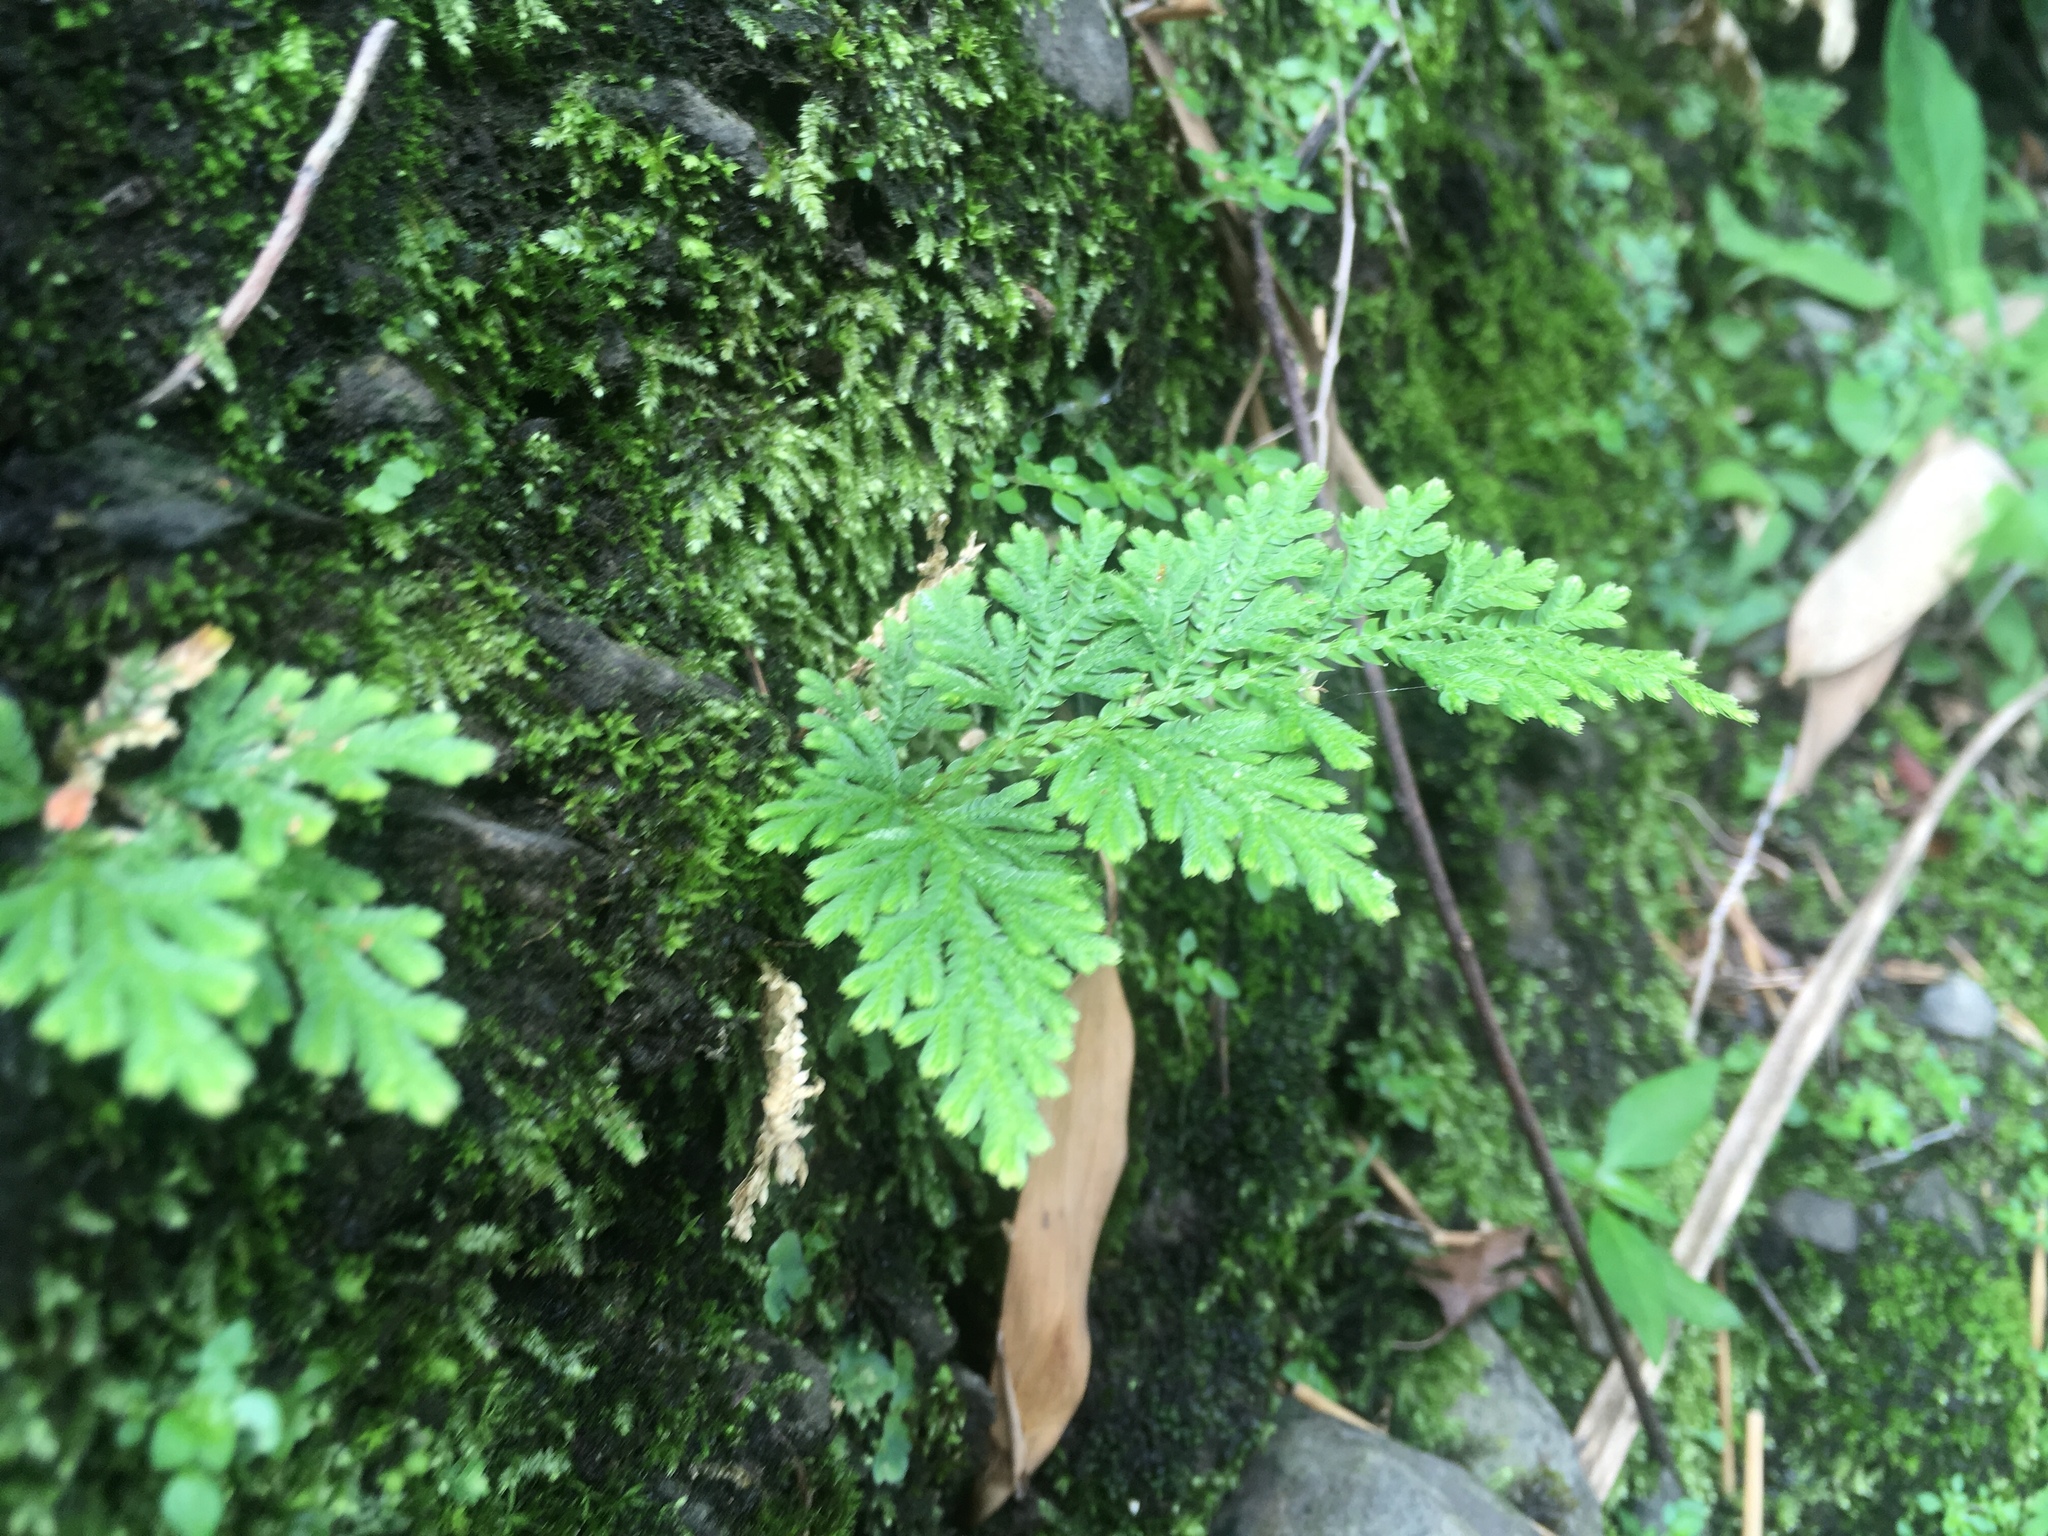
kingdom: Plantae
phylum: Tracheophyta
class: Lycopodiopsida
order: Selaginellales
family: Selaginellaceae
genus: Selaginella
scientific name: Selaginella moellendorffii
